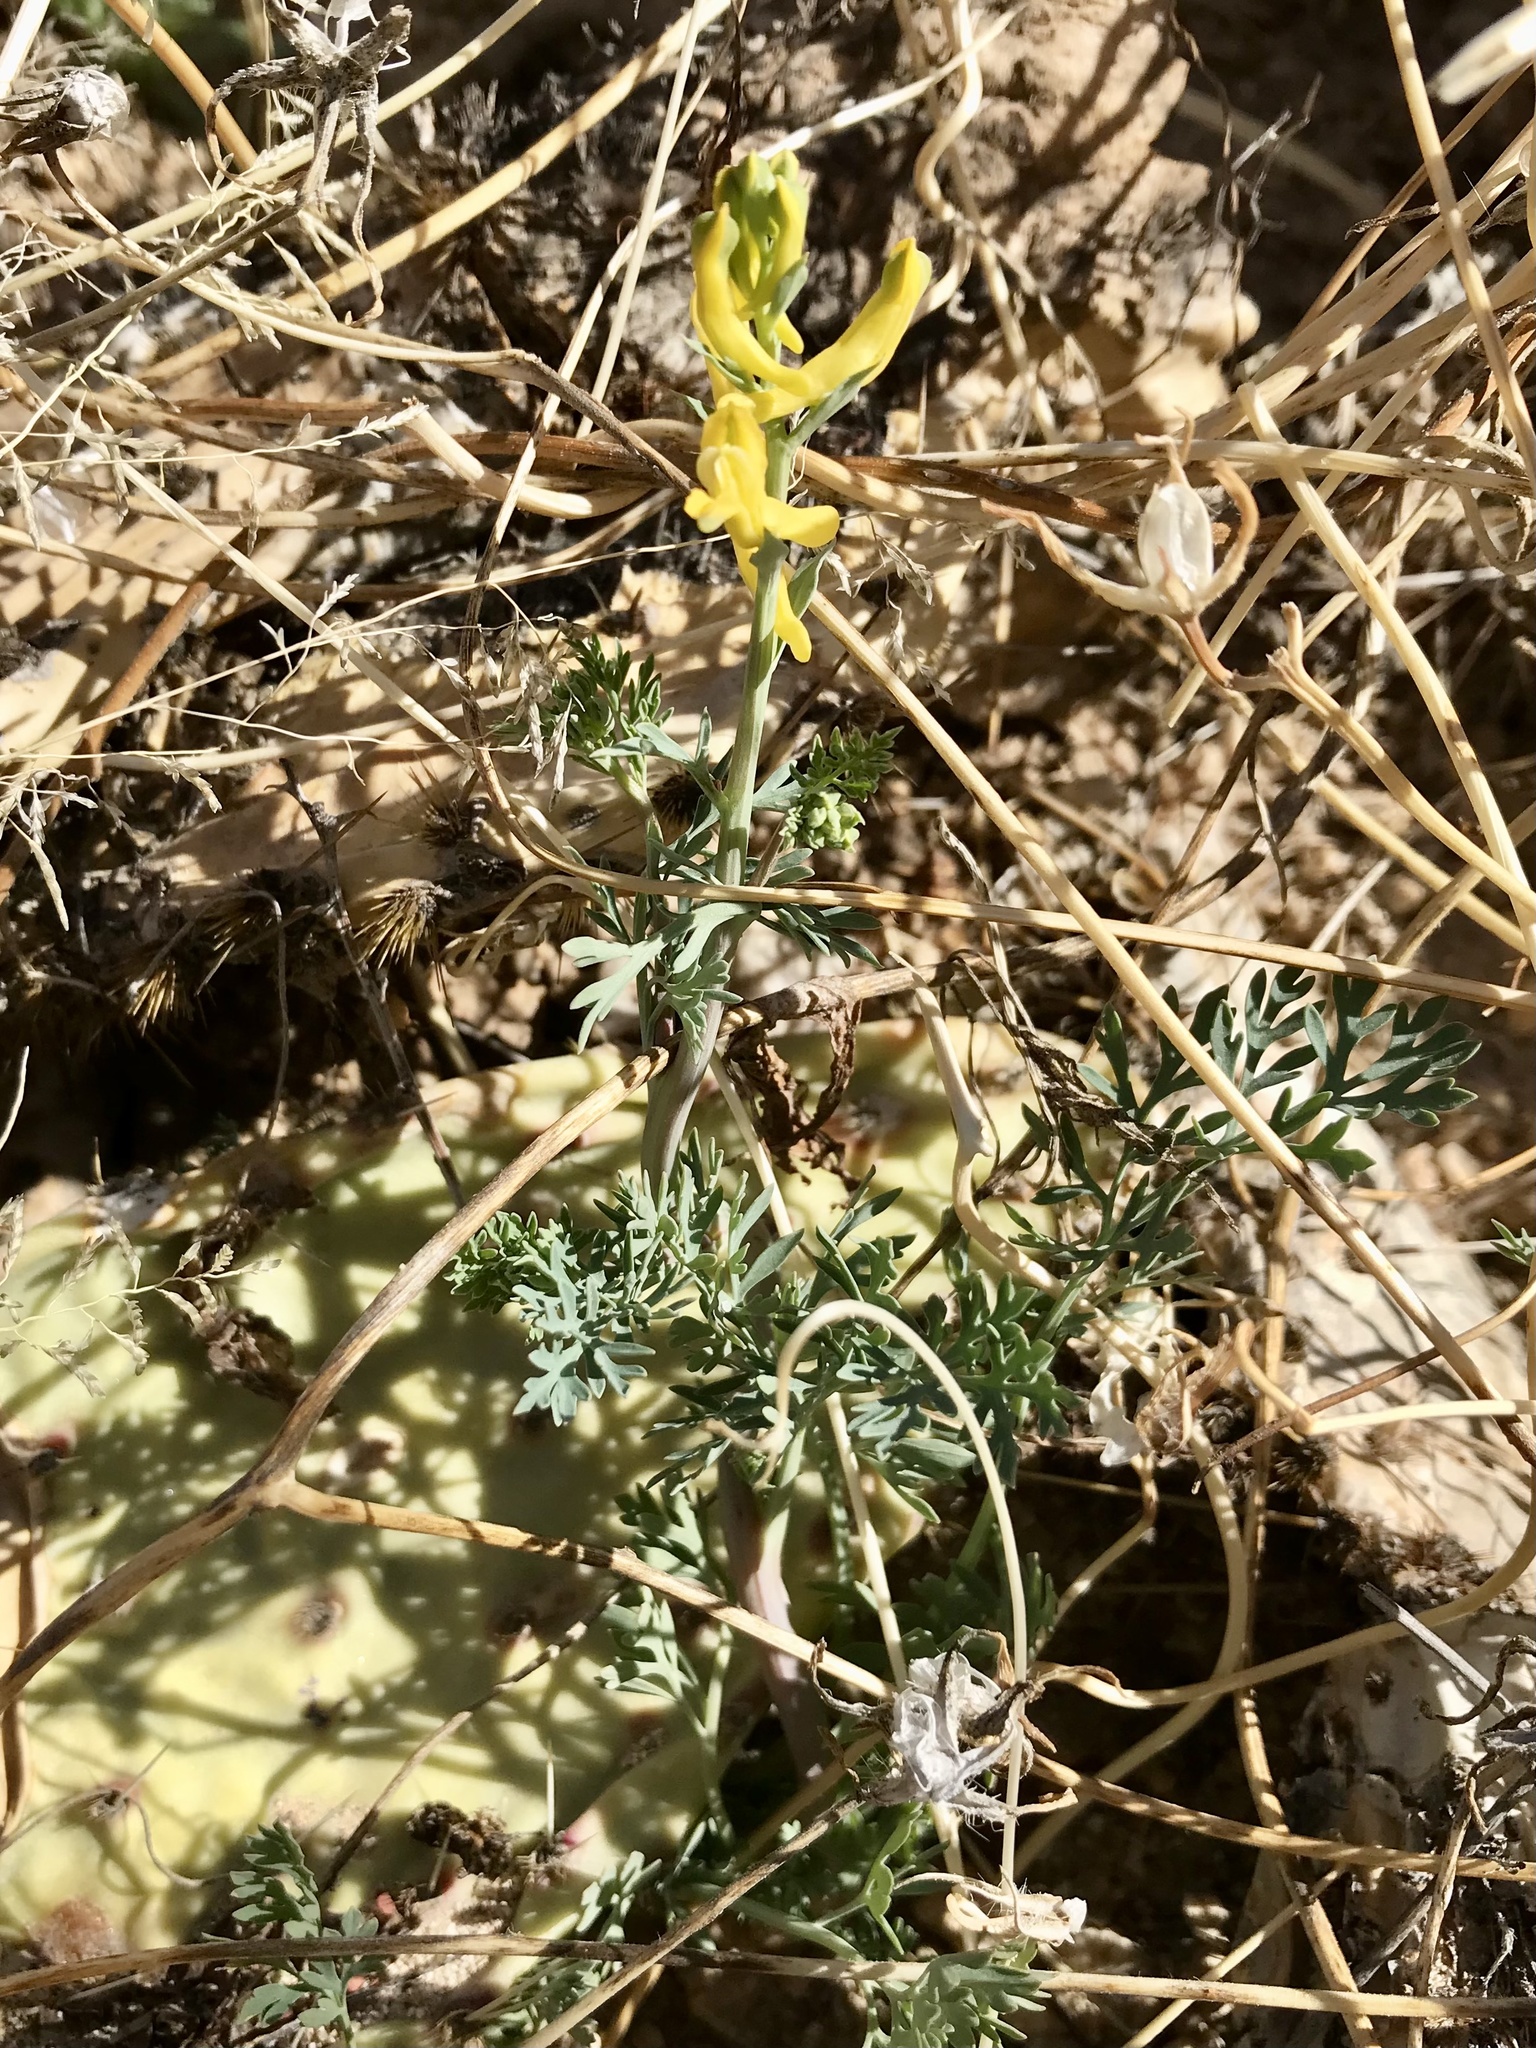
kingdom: Plantae
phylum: Tracheophyta
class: Magnoliopsida
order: Ranunculales
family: Papaveraceae
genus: Corydalis
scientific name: Corydalis aurea
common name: Golden corydalis
